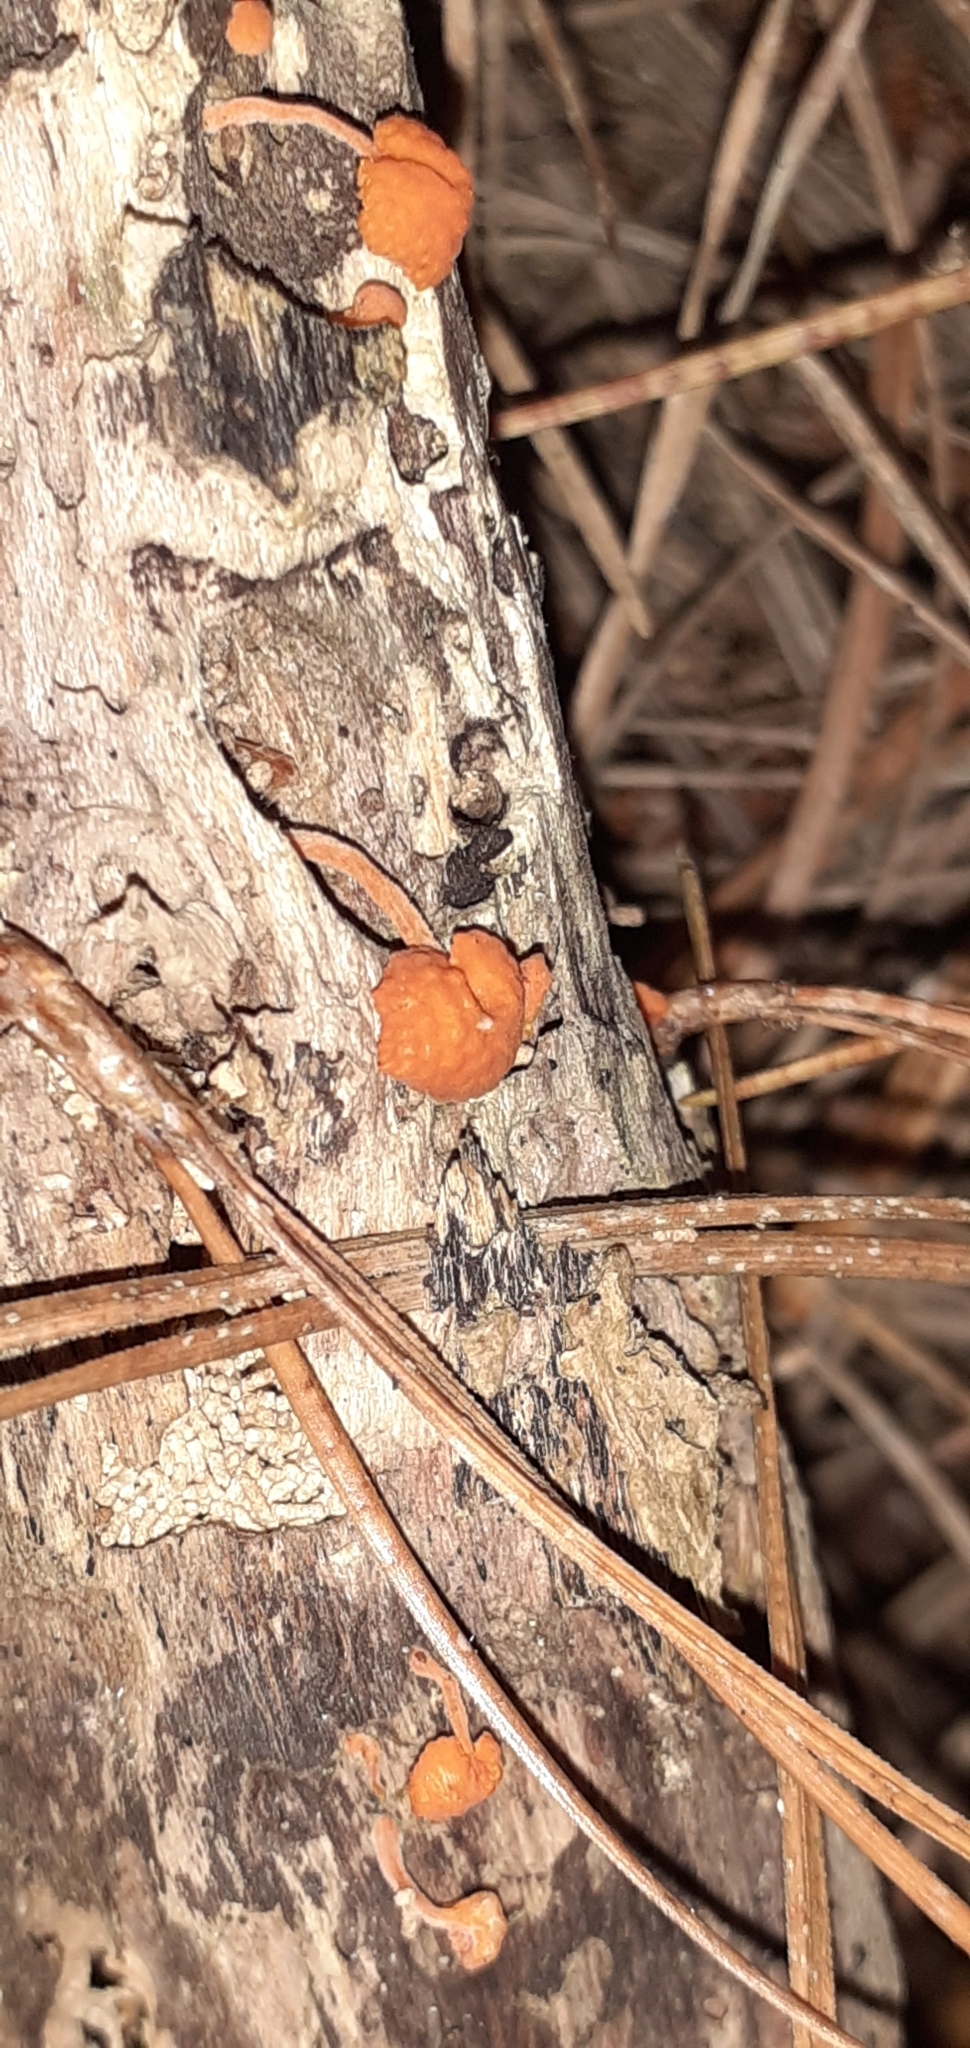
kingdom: Fungi
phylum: Basidiomycota
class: Agaricomycetes
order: Agaricales
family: Mycenaceae
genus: Favolaschia
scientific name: Favolaschia claudopus
